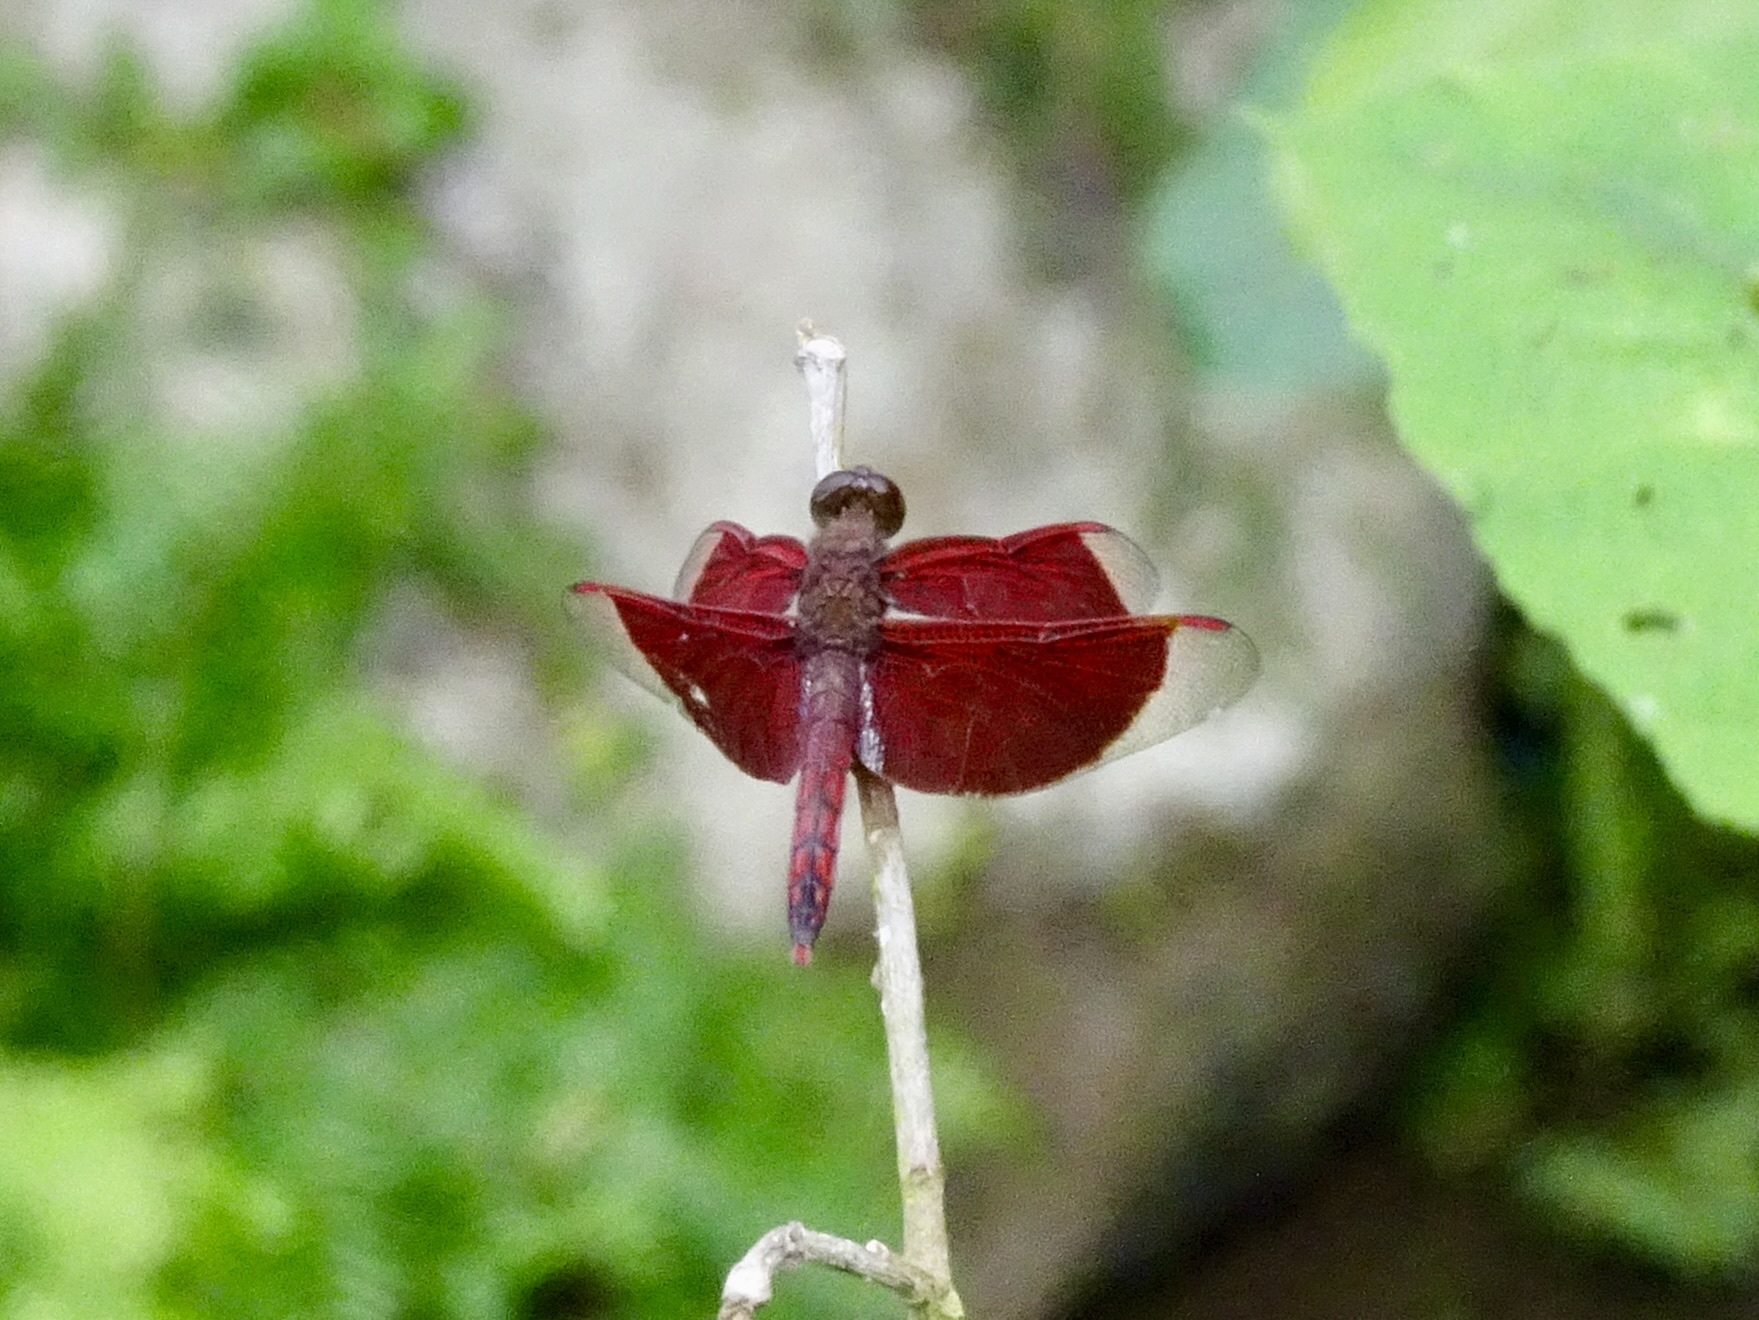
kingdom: Animalia
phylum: Arthropoda
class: Insecta
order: Odonata
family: Libellulidae
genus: Neurothemis
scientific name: Neurothemis ramburii
